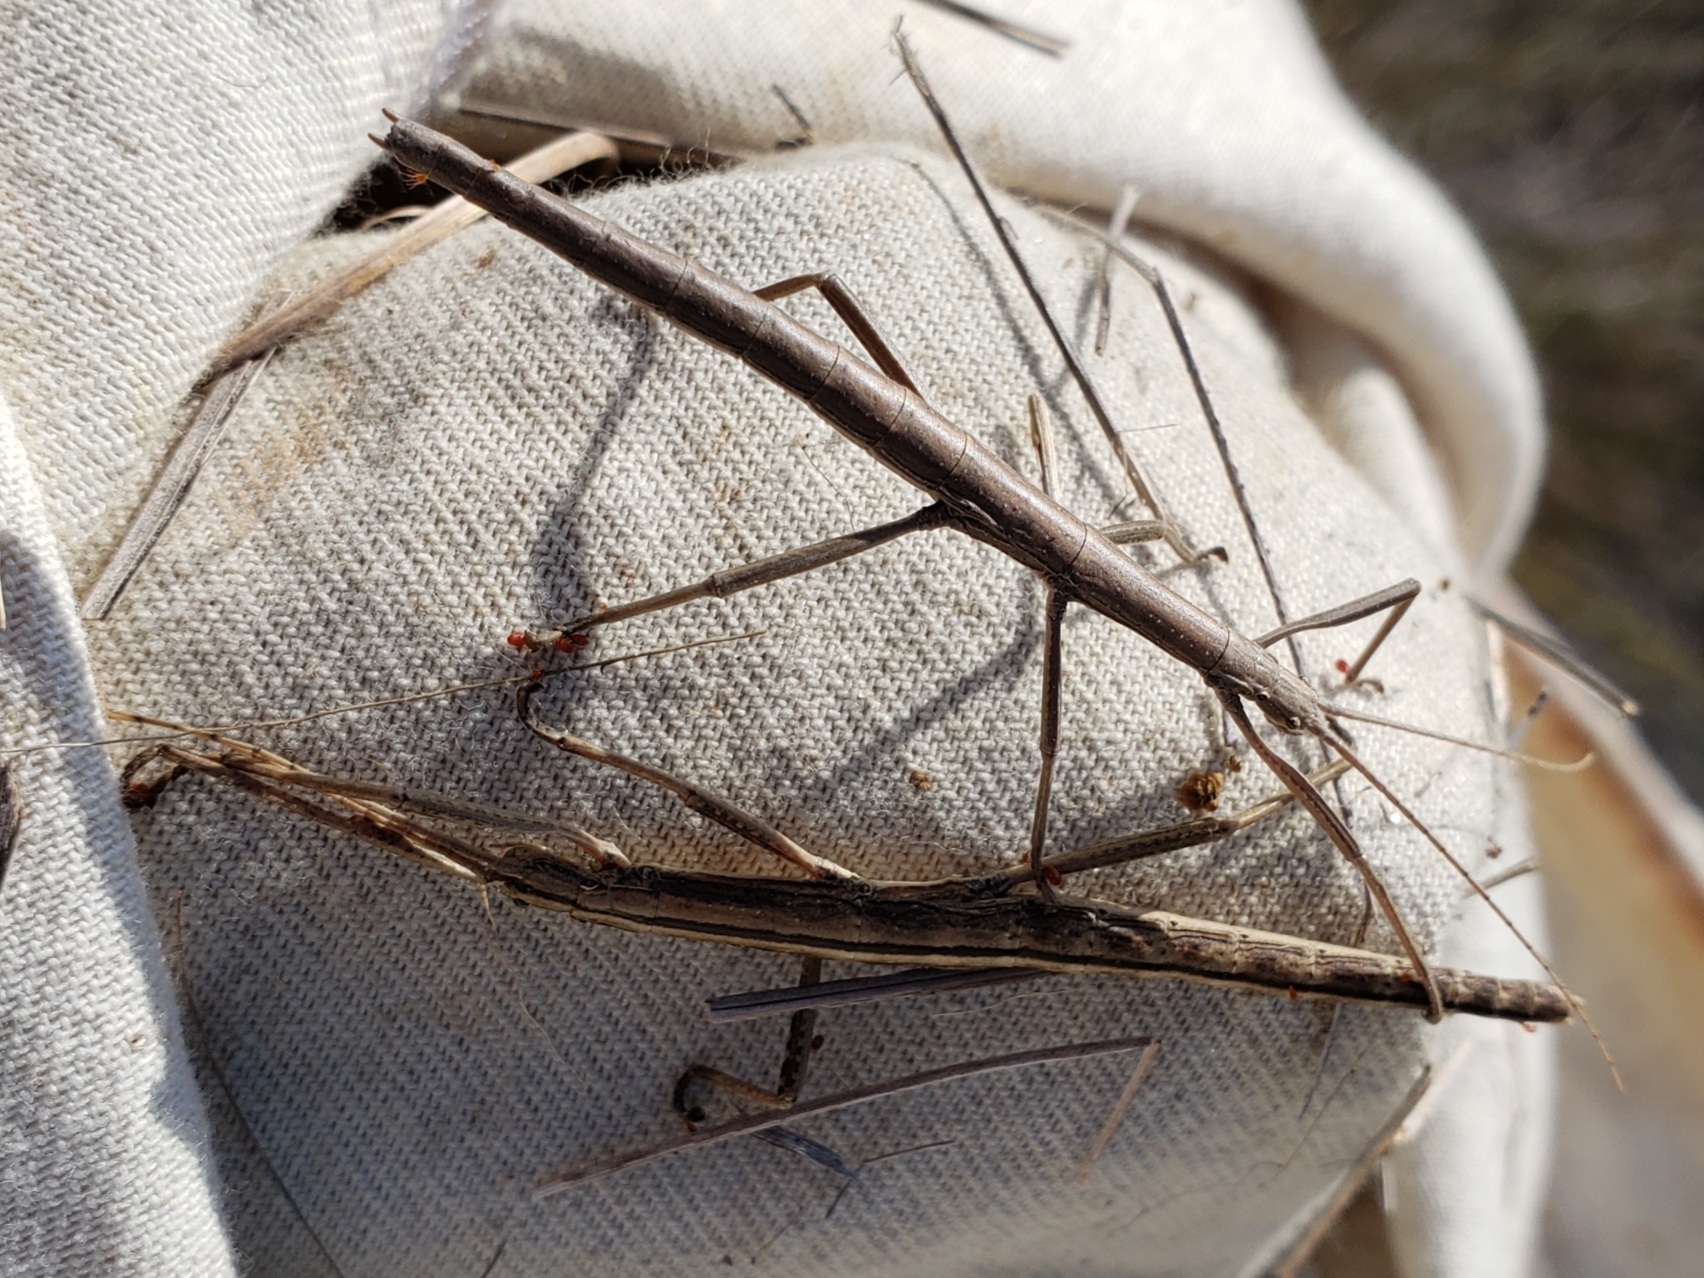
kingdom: Animalia
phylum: Arthropoda
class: Insecta
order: Phasmida
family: Pseudophasmatidae
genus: Anisomorpha
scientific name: Anisomorpha buprestoides
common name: Florida stick insect
